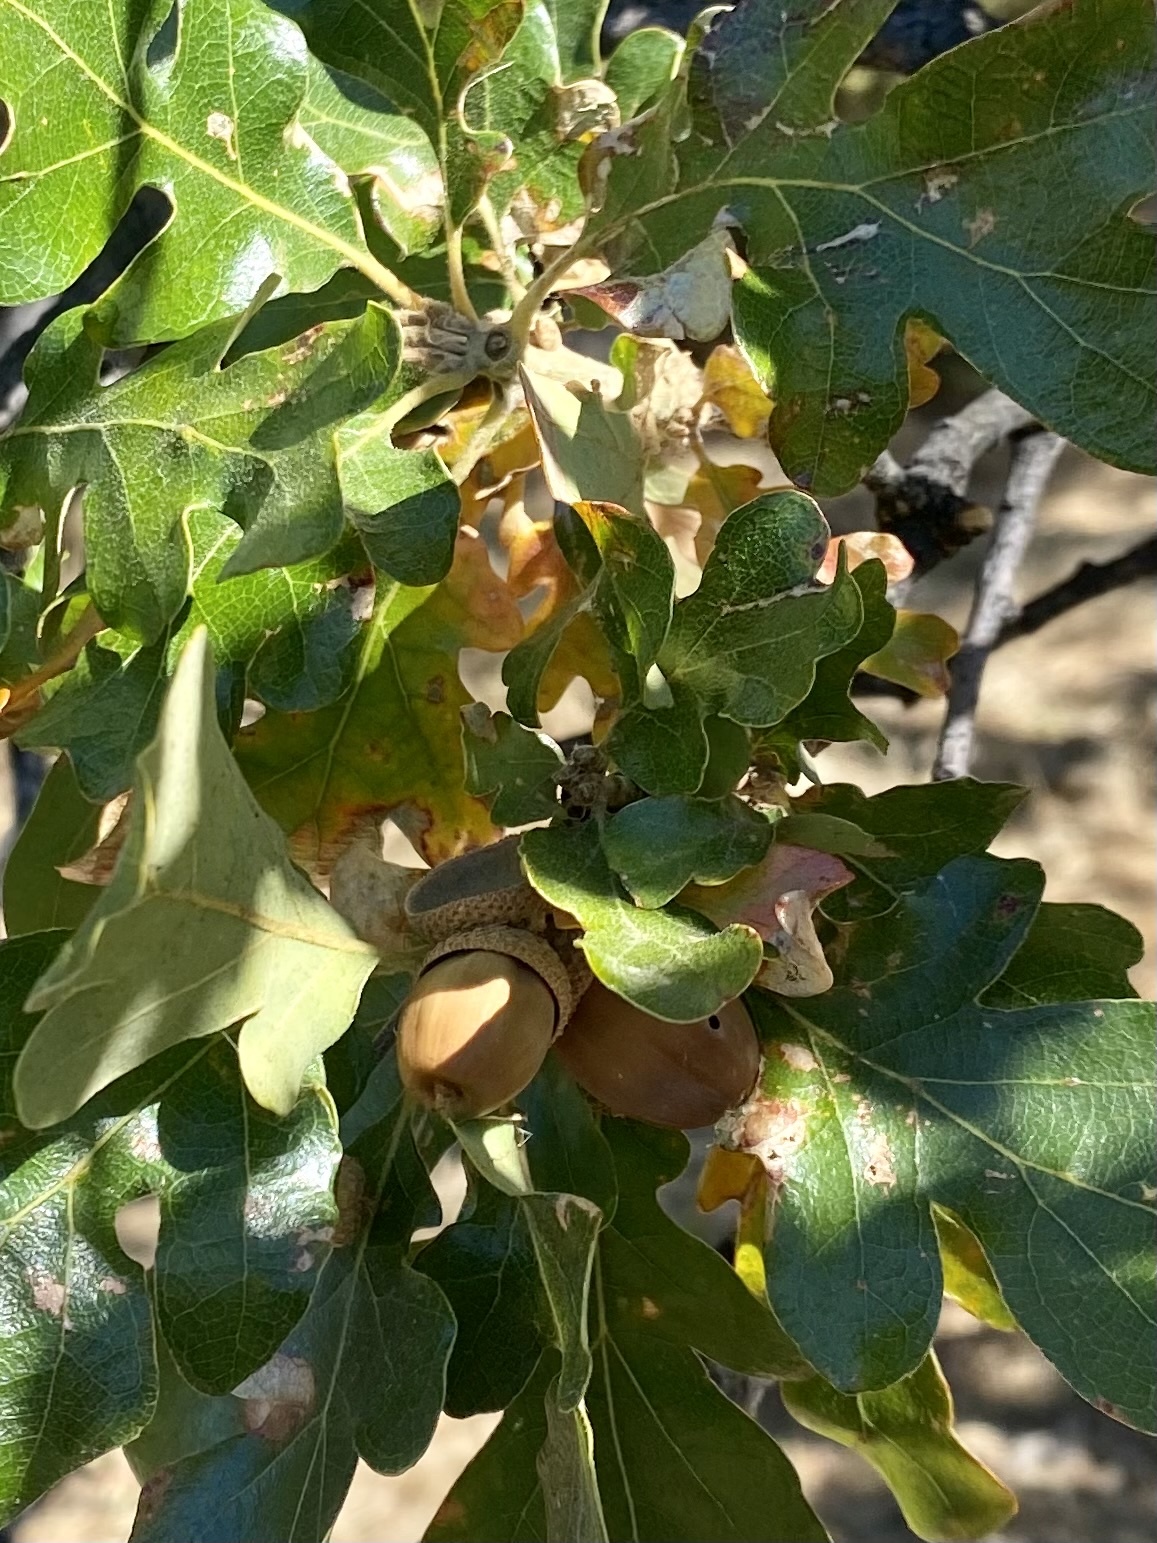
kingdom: Plantae
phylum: Tracheophyta
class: Magnoliopsida
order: Fagales
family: Fagaceae
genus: Quercus
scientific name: Quercus garryana
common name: Garry oak
